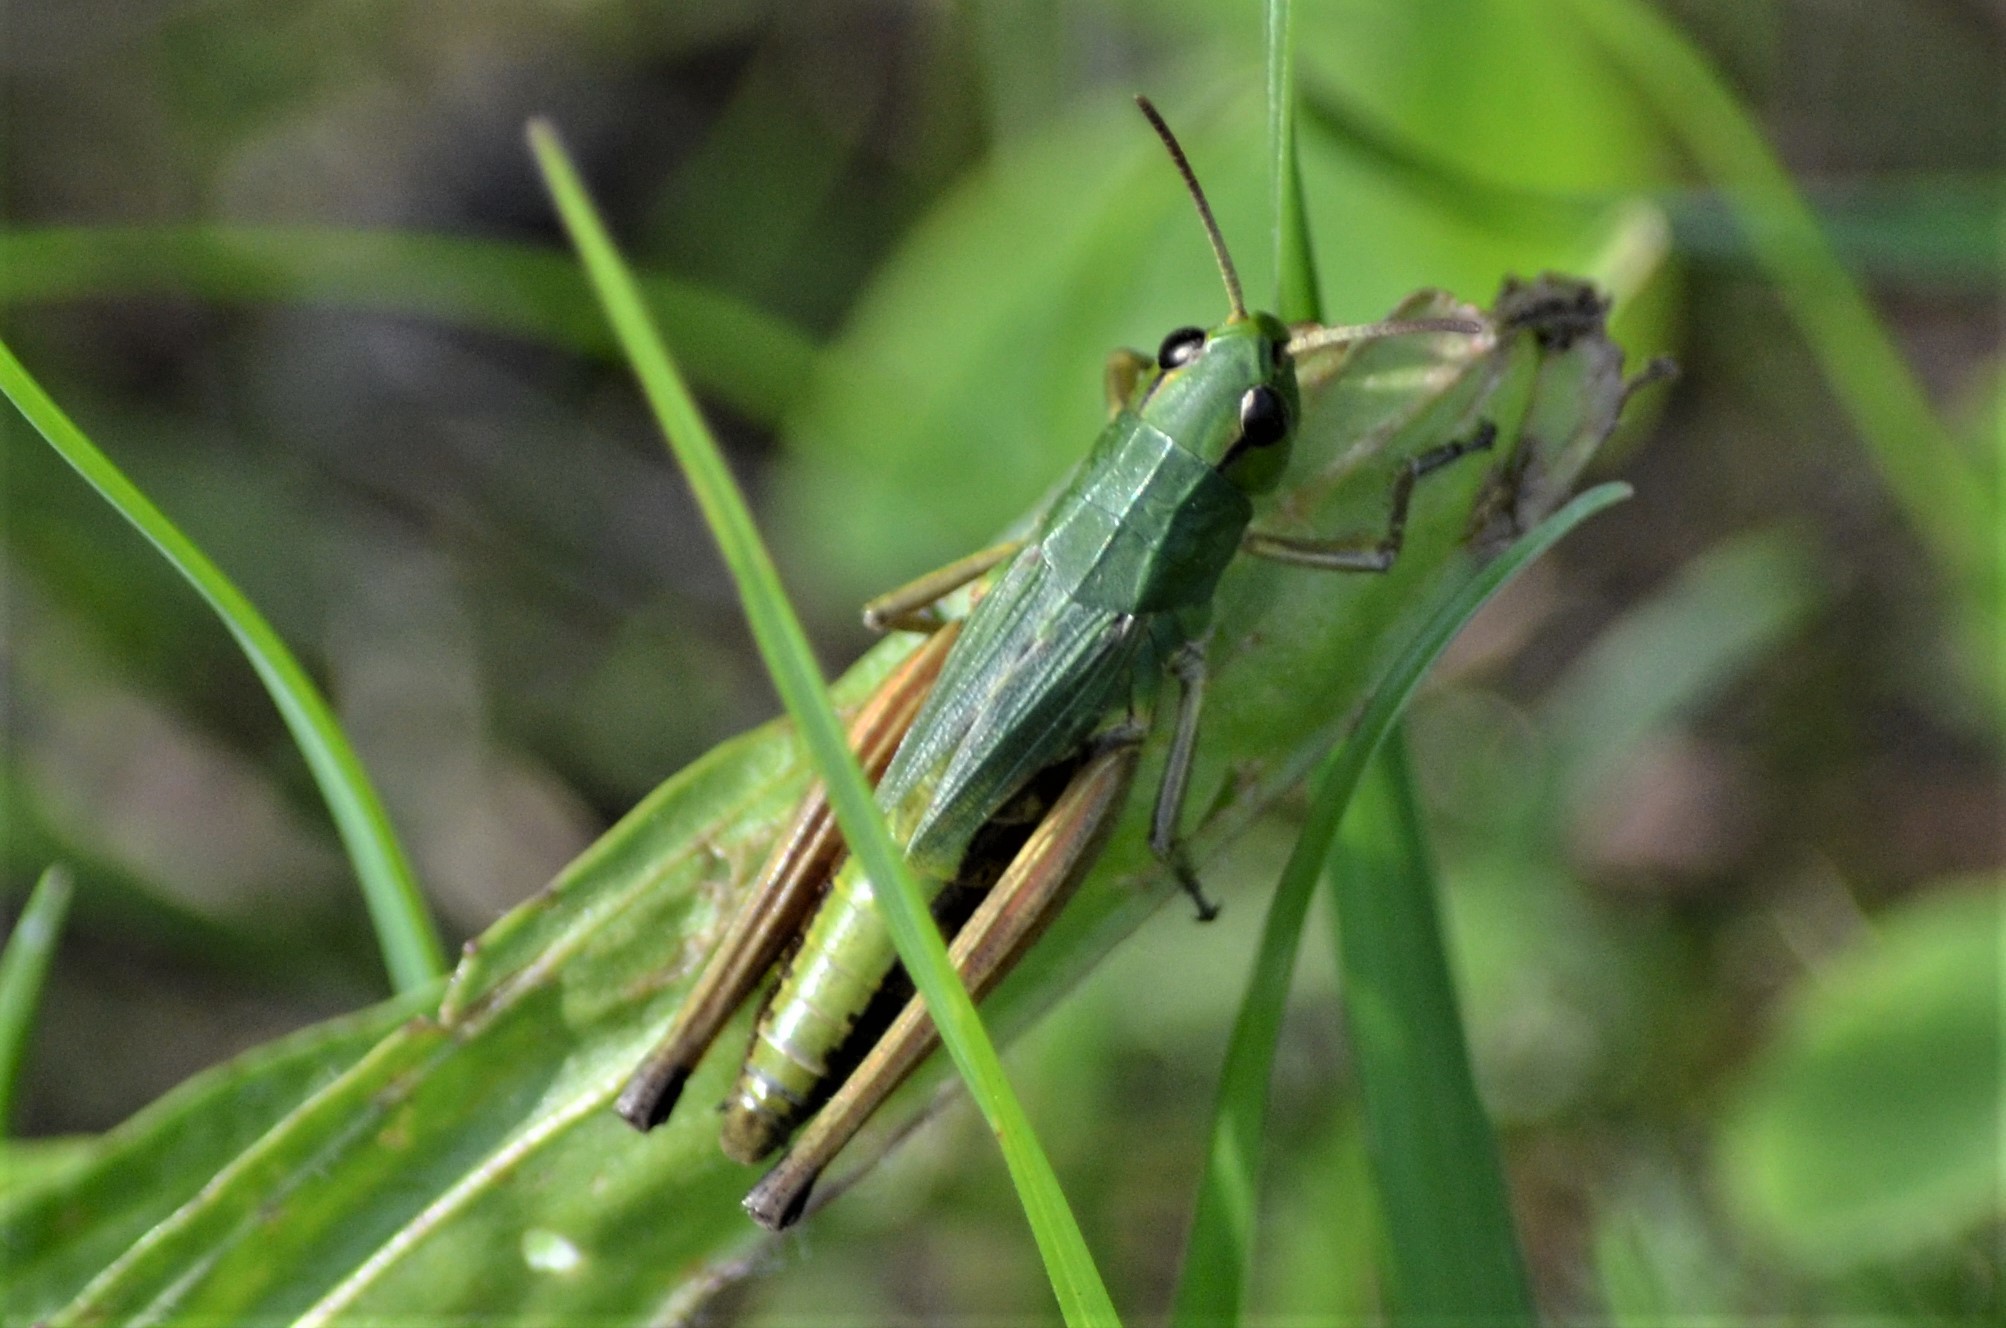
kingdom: Animalia
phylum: Arthropoda
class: Insecta
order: Orthoptera
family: Acrididae
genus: Pseudochorthippus
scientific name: Pseudochorthippus parallelus
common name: Meadow grasshopper
